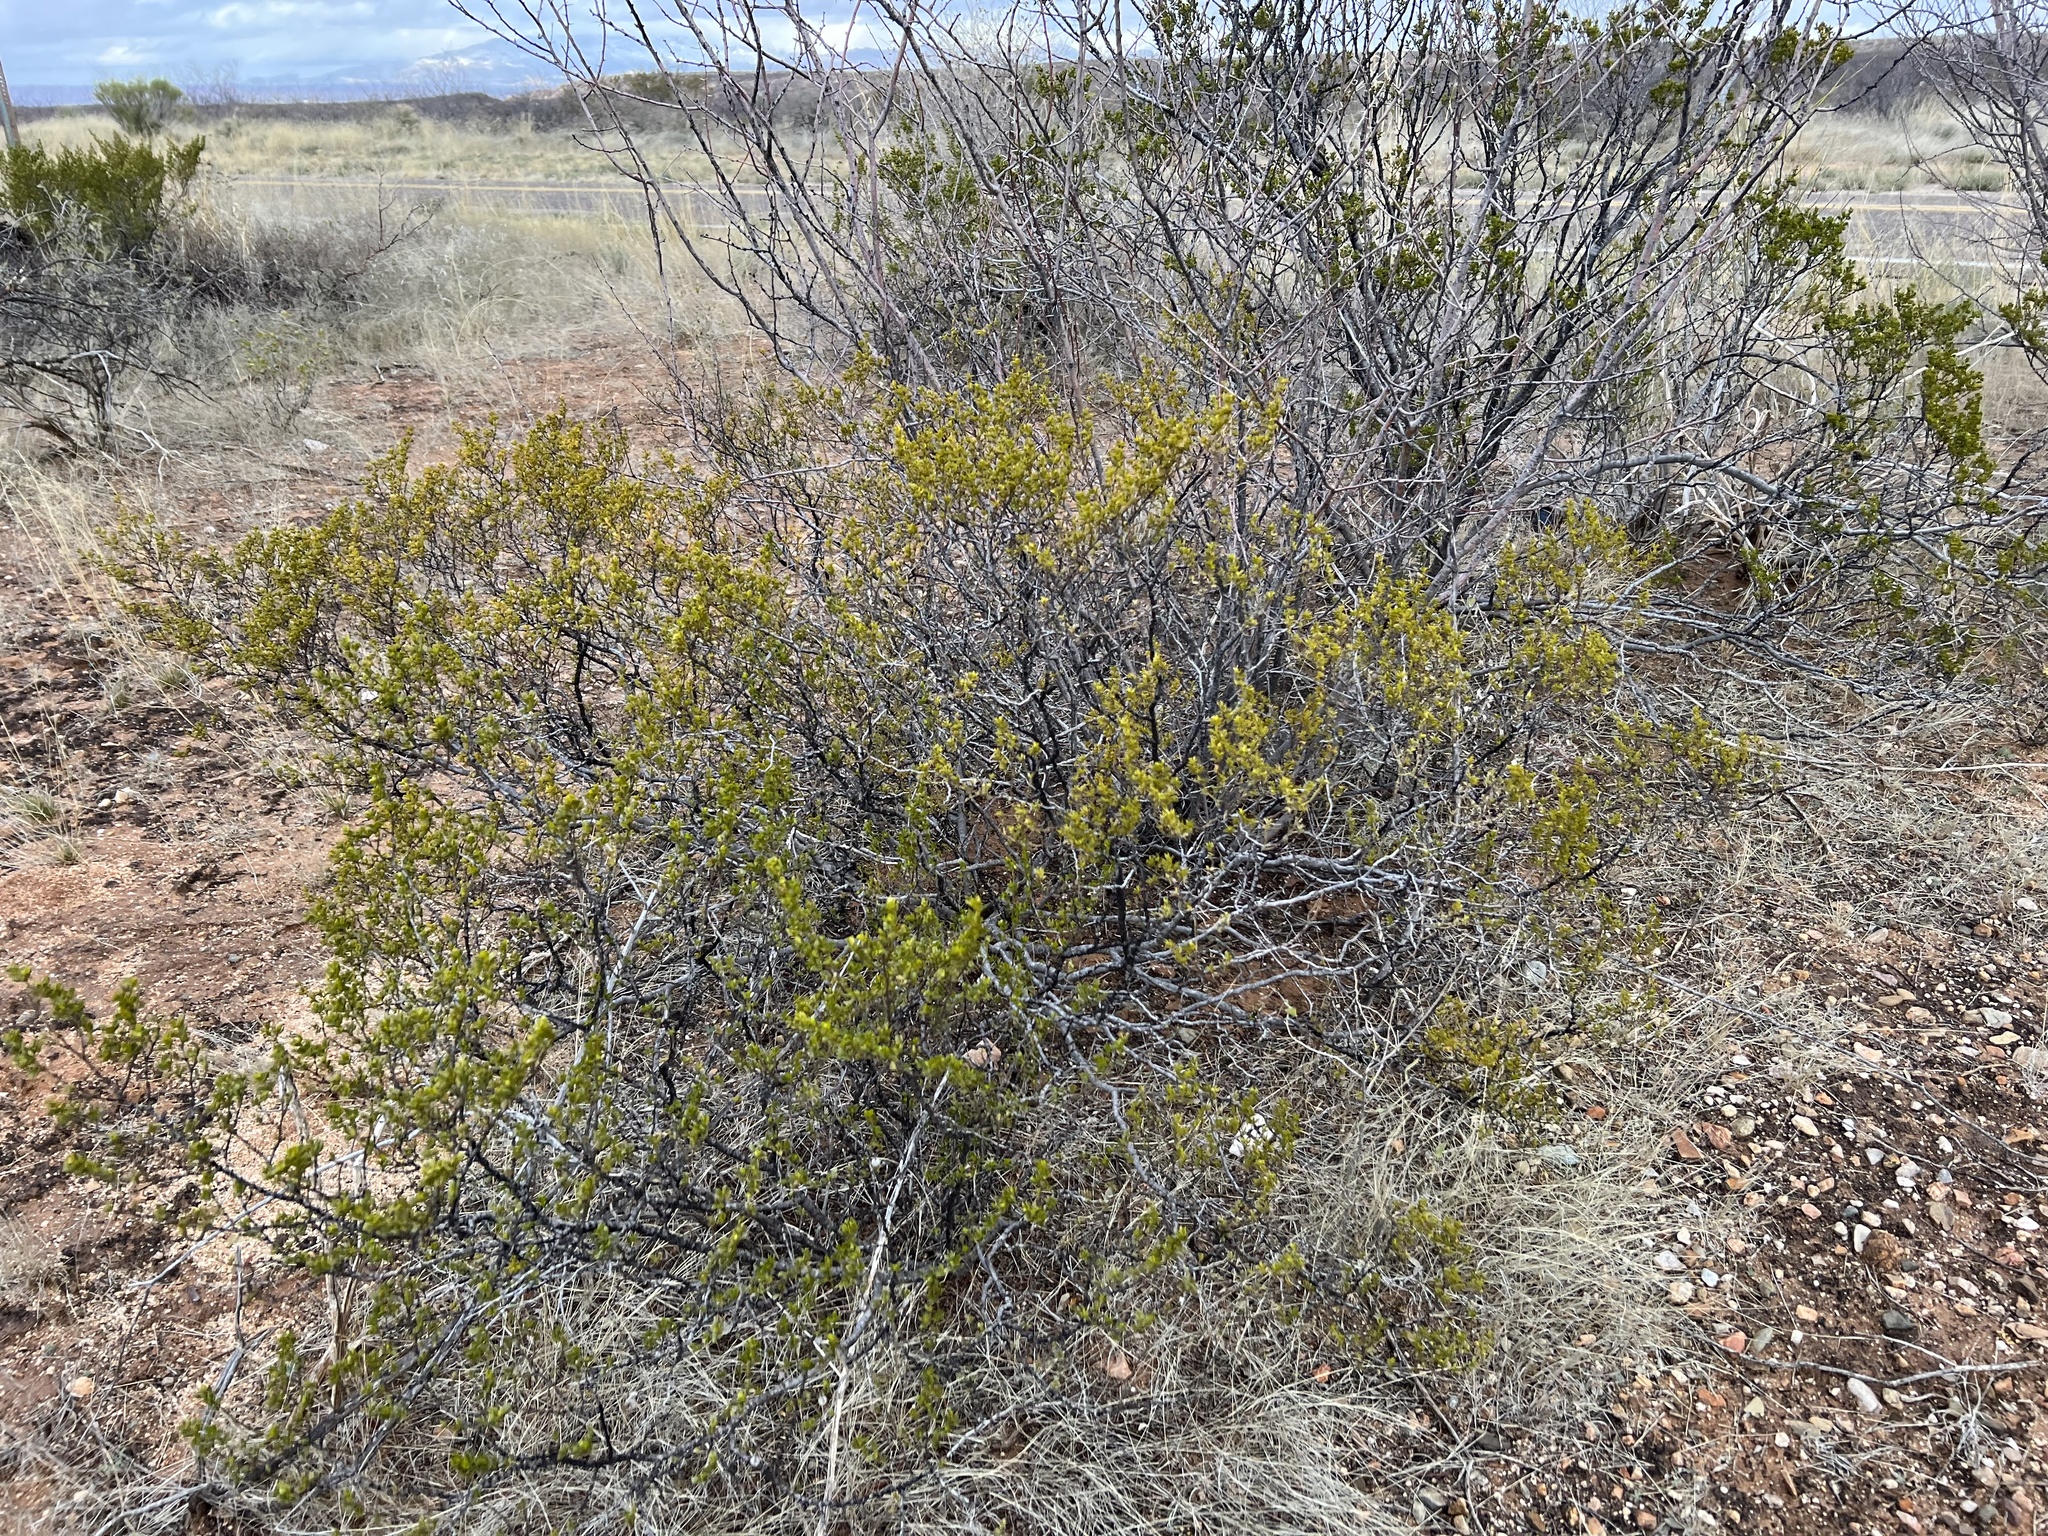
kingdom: Plantae
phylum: Tracheophyta
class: Magnoliopsida
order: Zygophyllales
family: Zygophyllaceae
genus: Larrea
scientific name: Larrea tridentata
